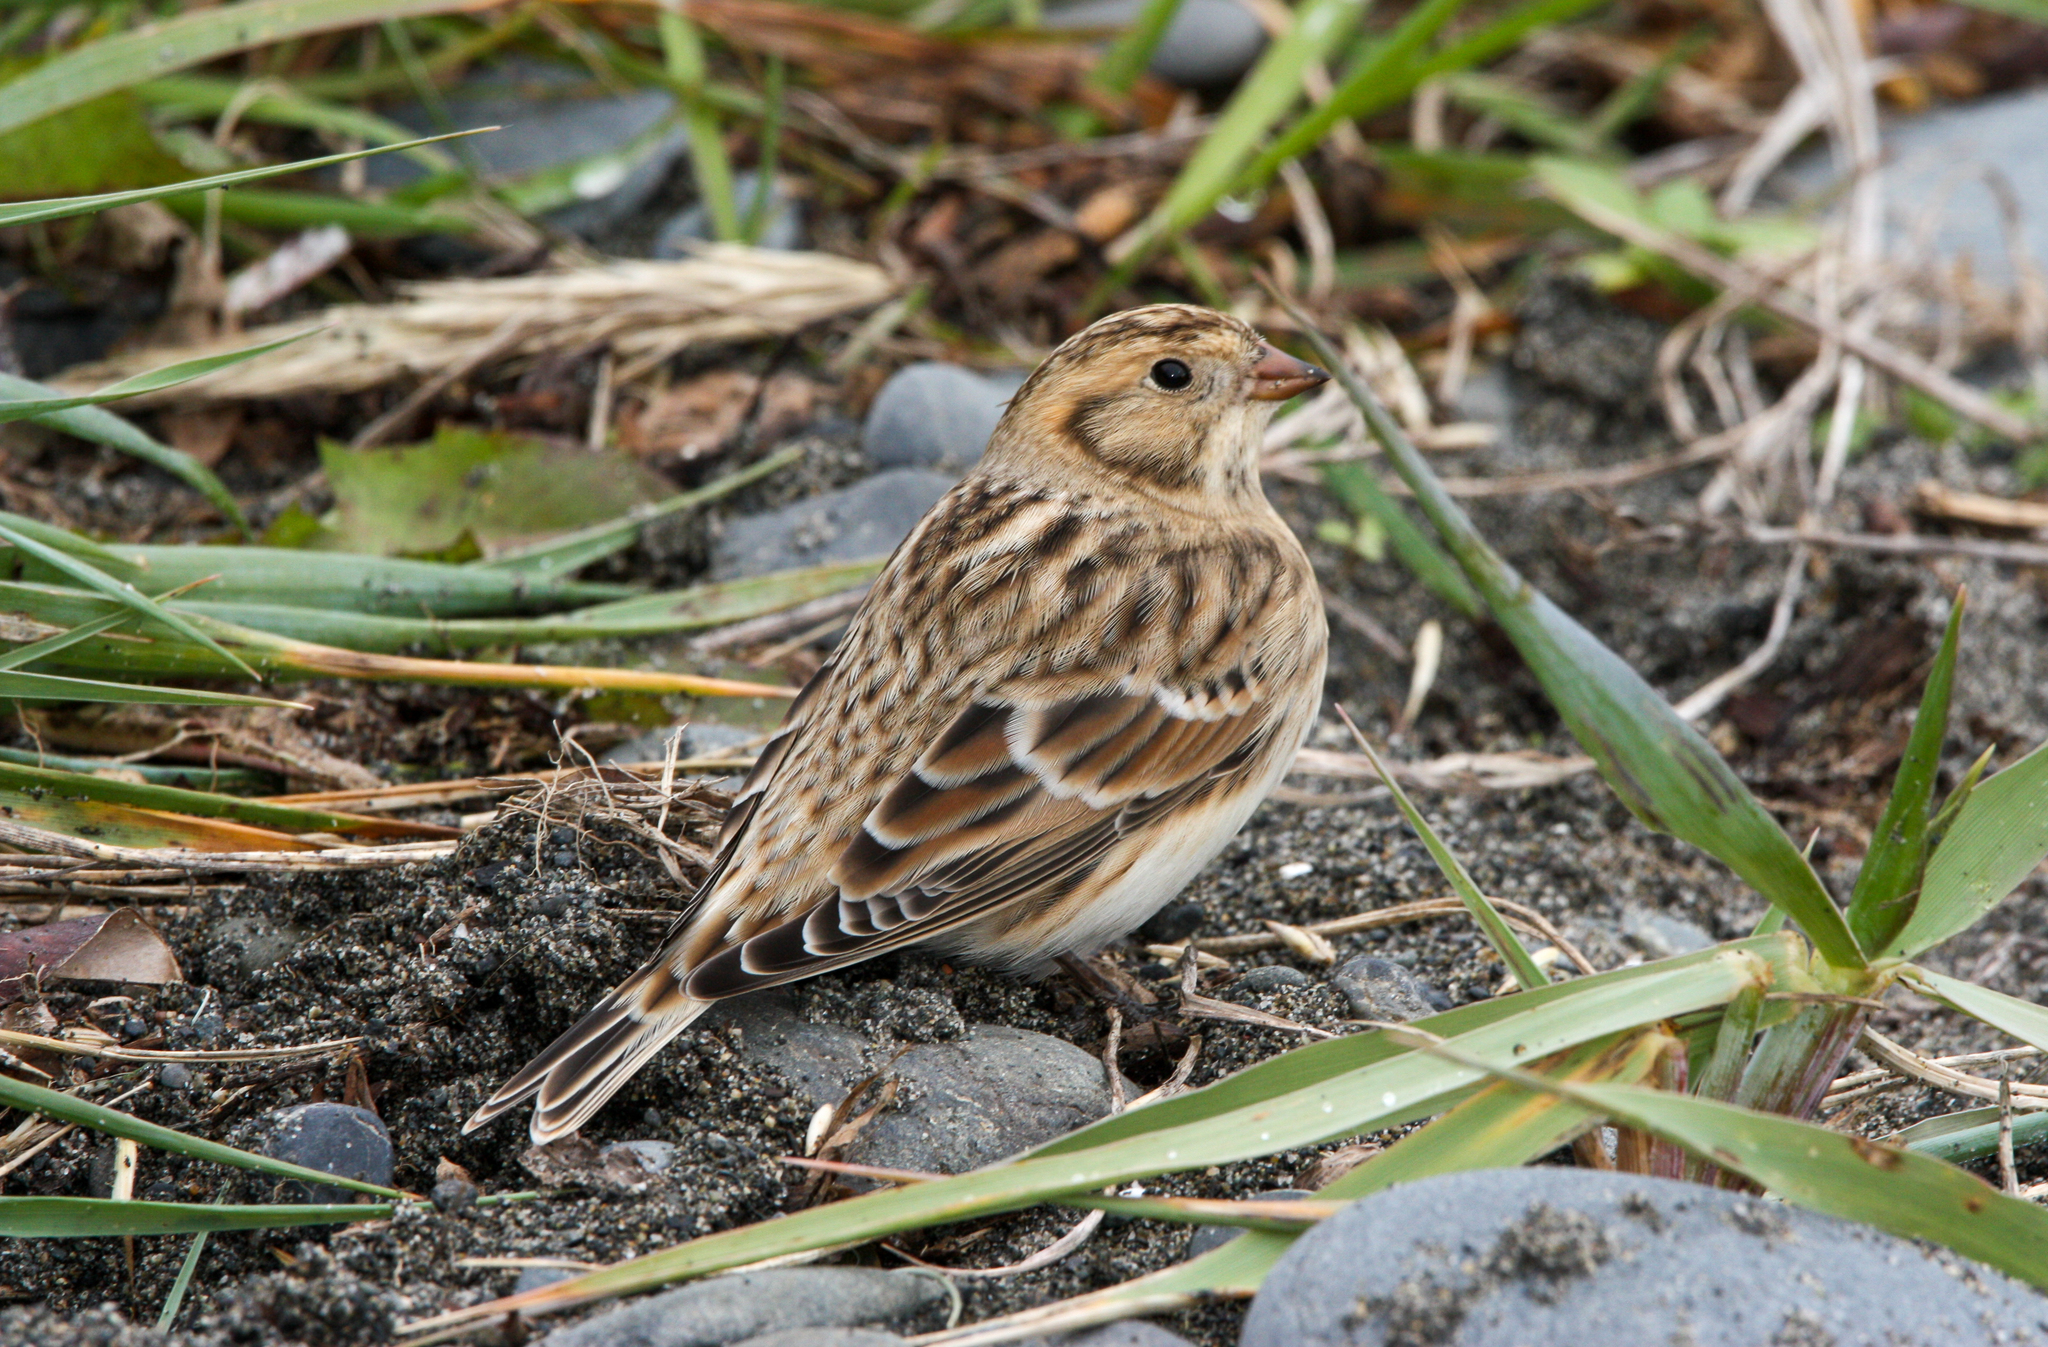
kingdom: Animalia
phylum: Chordata
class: Aves
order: Passeriformes
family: Calcariidae
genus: Calcarius
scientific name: Calcarius lapponicus
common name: Lapland longspur
